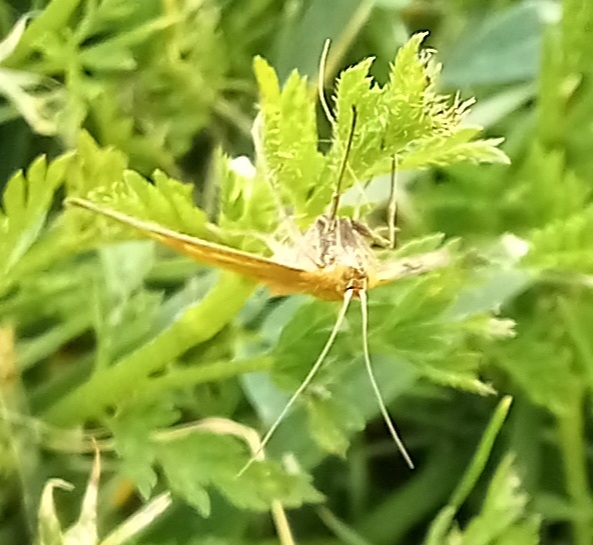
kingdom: Animalia
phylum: Arthropoda
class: Insecta
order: Lepidoptera
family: Crambidae
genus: Sitochroa
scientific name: Sitochroa verticalis
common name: Lesser pearl
